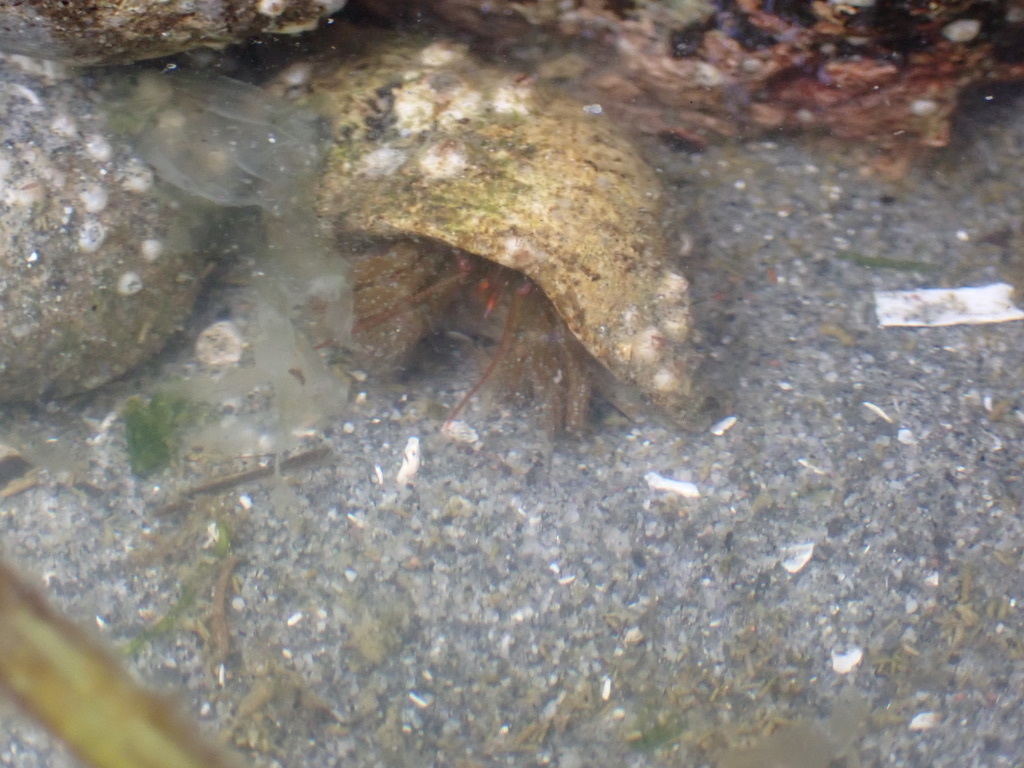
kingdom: Animalia
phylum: Arthropoda
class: Malacostraca
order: Decapoda
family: Paguridae
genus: Pagurus
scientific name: Pagurus granosimanus
